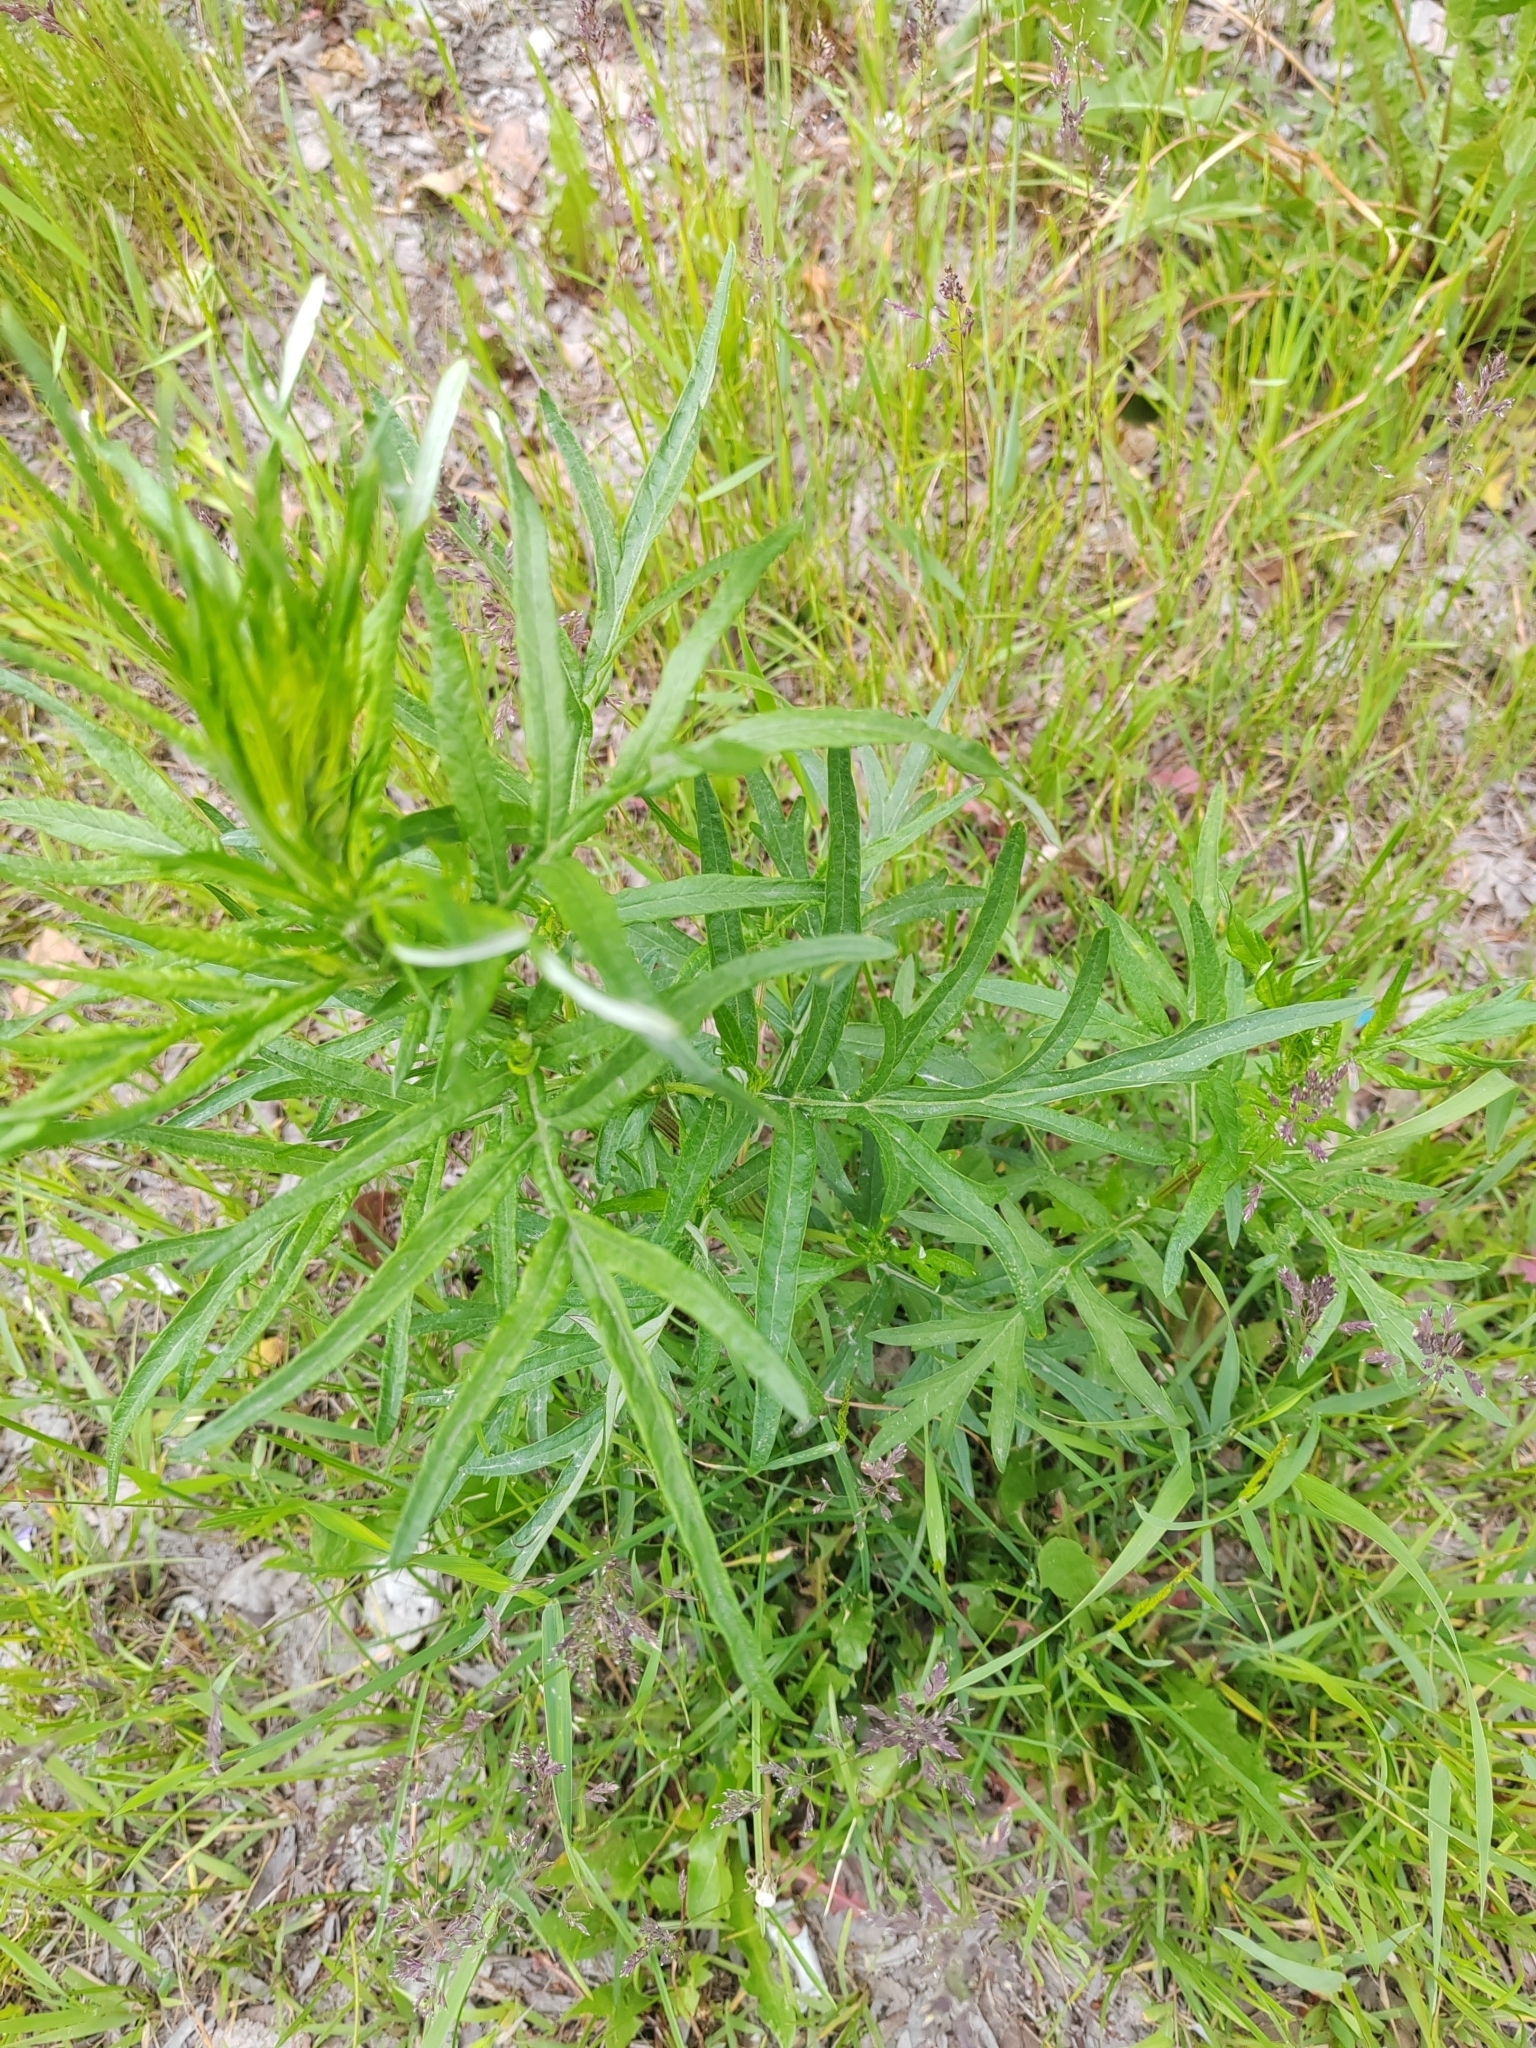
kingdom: Plantae
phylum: Tracheophyta
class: Magnoliopsida
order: Asterales
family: Asteraceae
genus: Artemisia
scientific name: Artemisia vulgaris
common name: Mugwort
